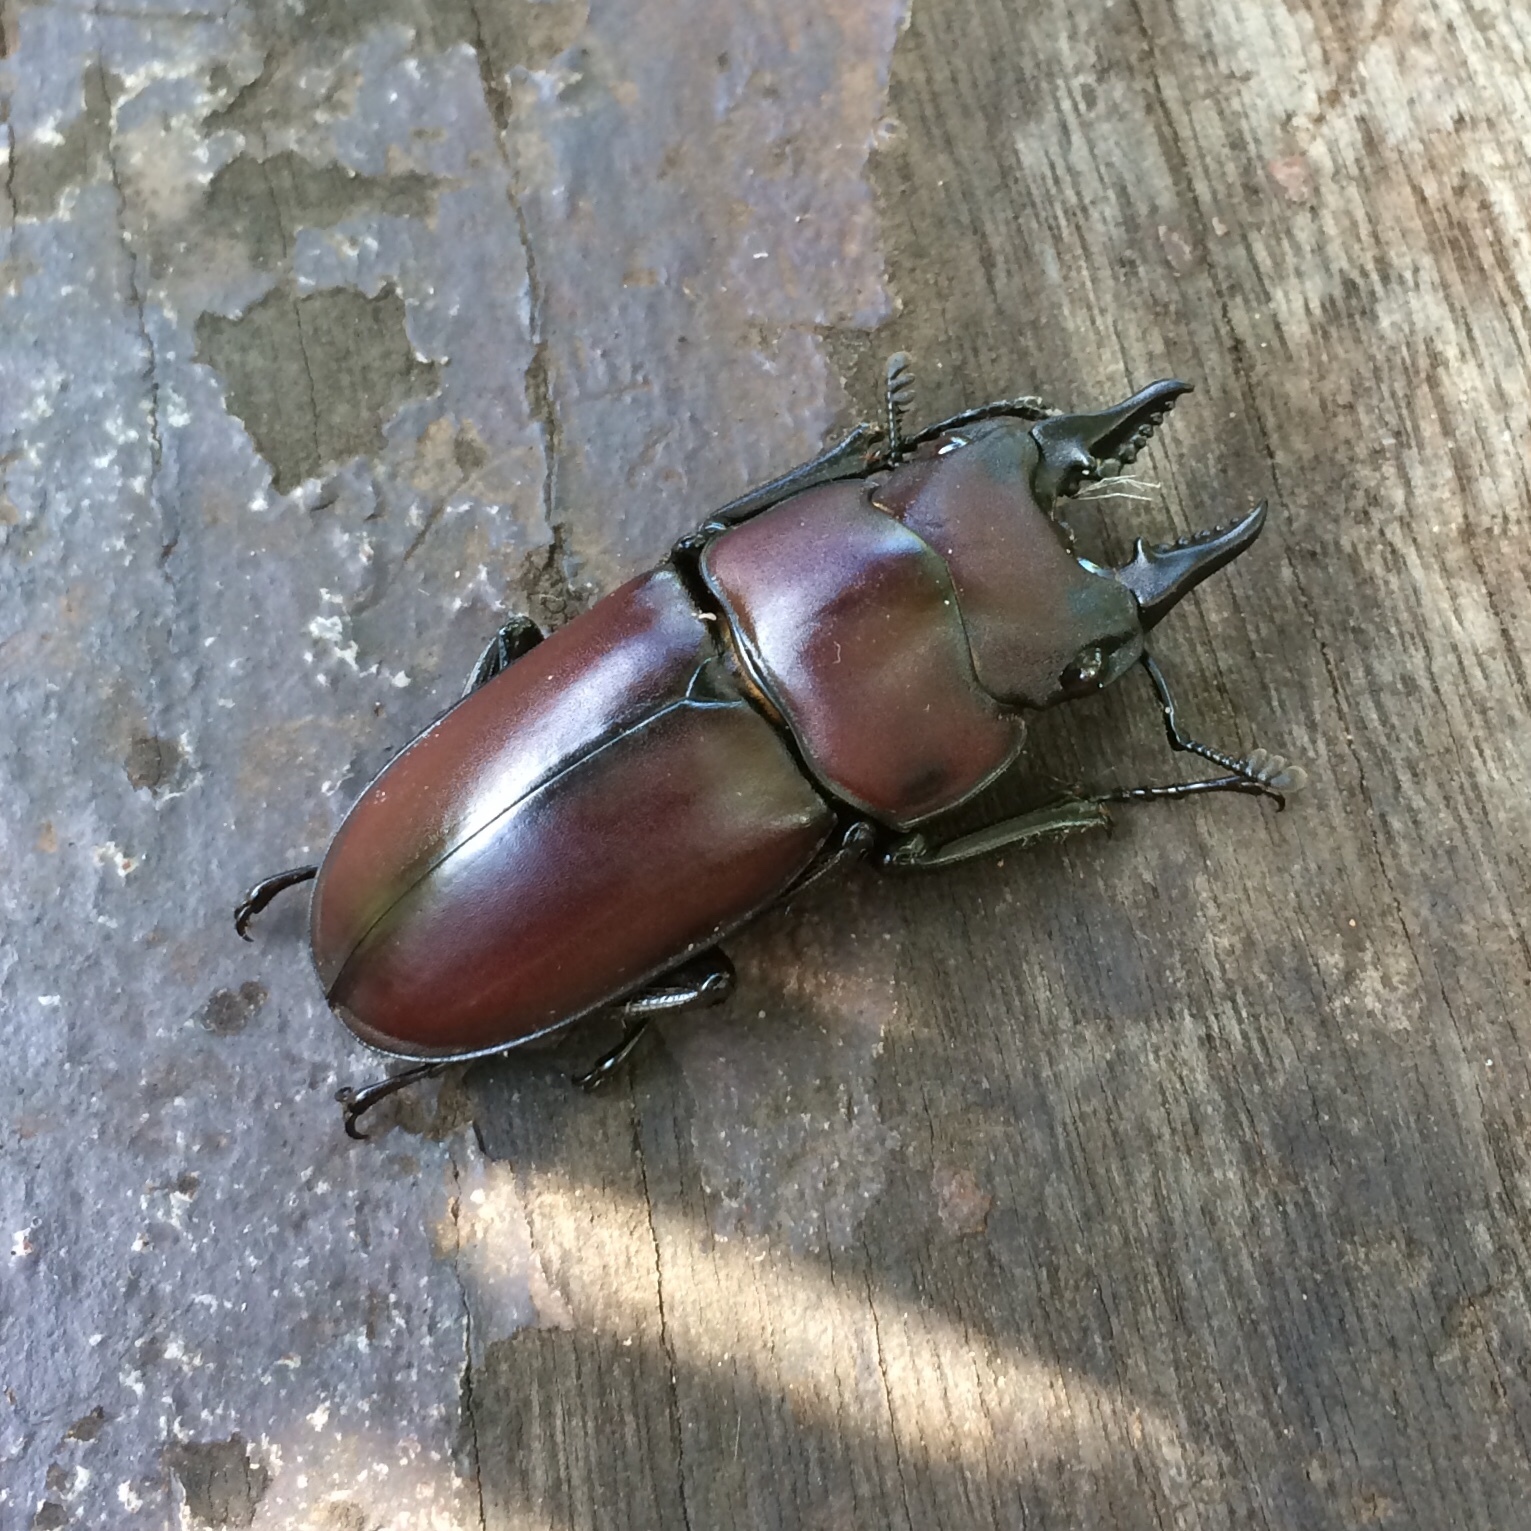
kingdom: Animalia
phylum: Arthropoda
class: Insecta
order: Coleoptera
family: Lucanidae
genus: Prosopocoilus
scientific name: Prosopocoilus natalensis
